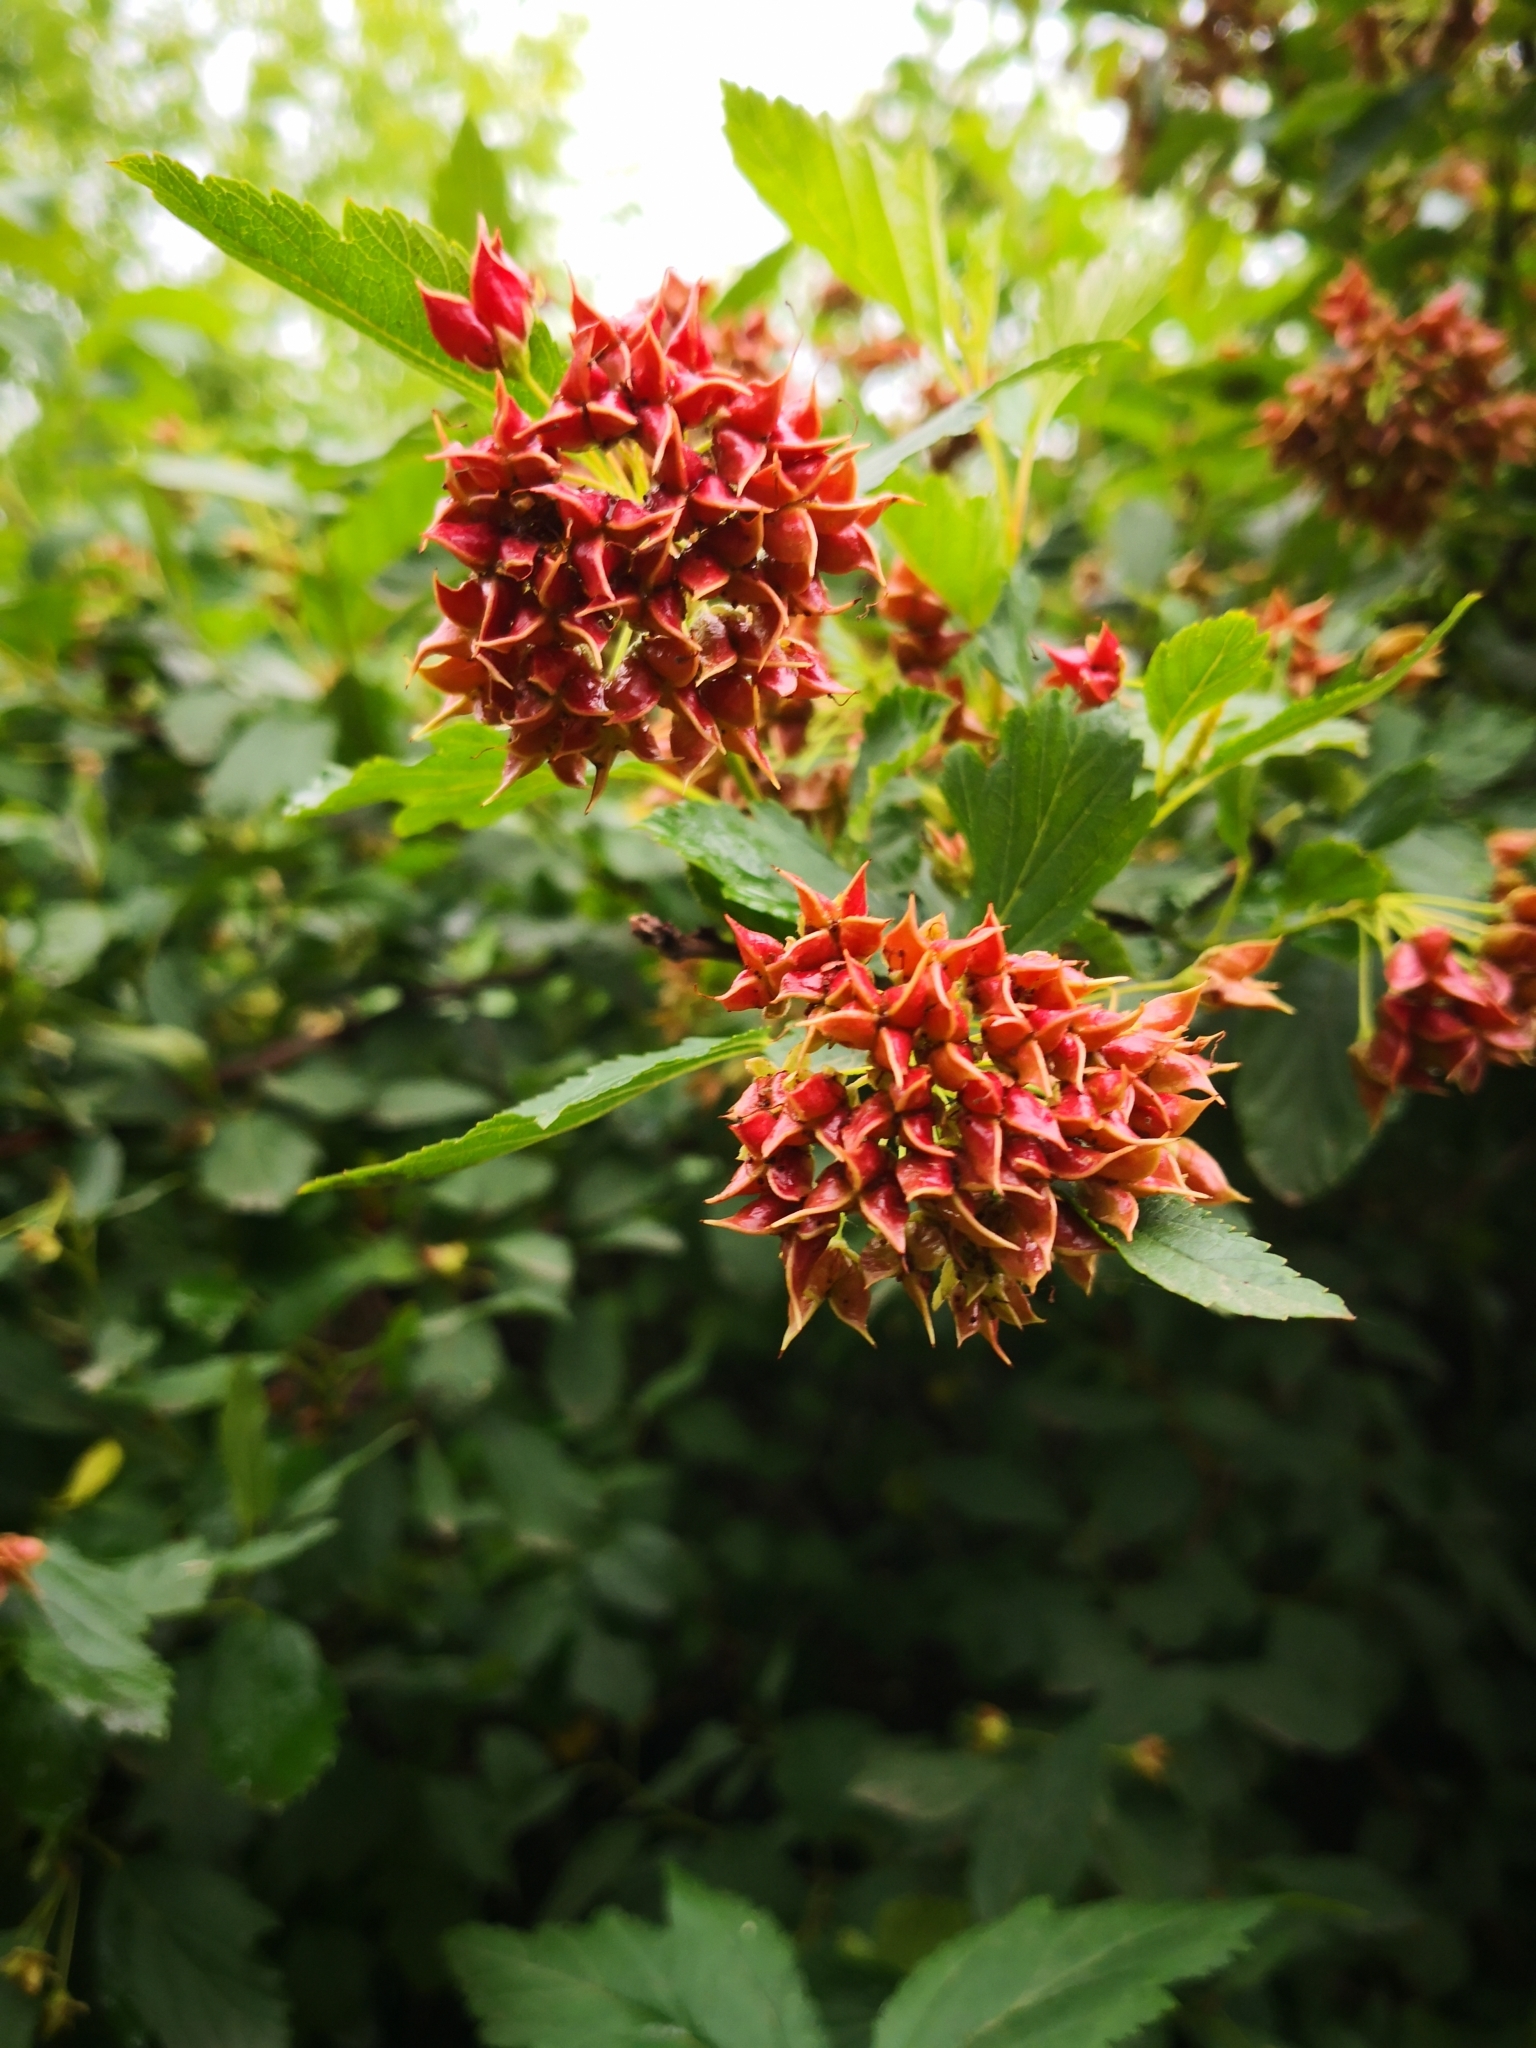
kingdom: Plantae
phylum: Tracheophyta
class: Magnoliopsida
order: Rosales
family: Rosaceae
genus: Physocarpus
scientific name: Physocarpus opulifolius
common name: Ninebark
